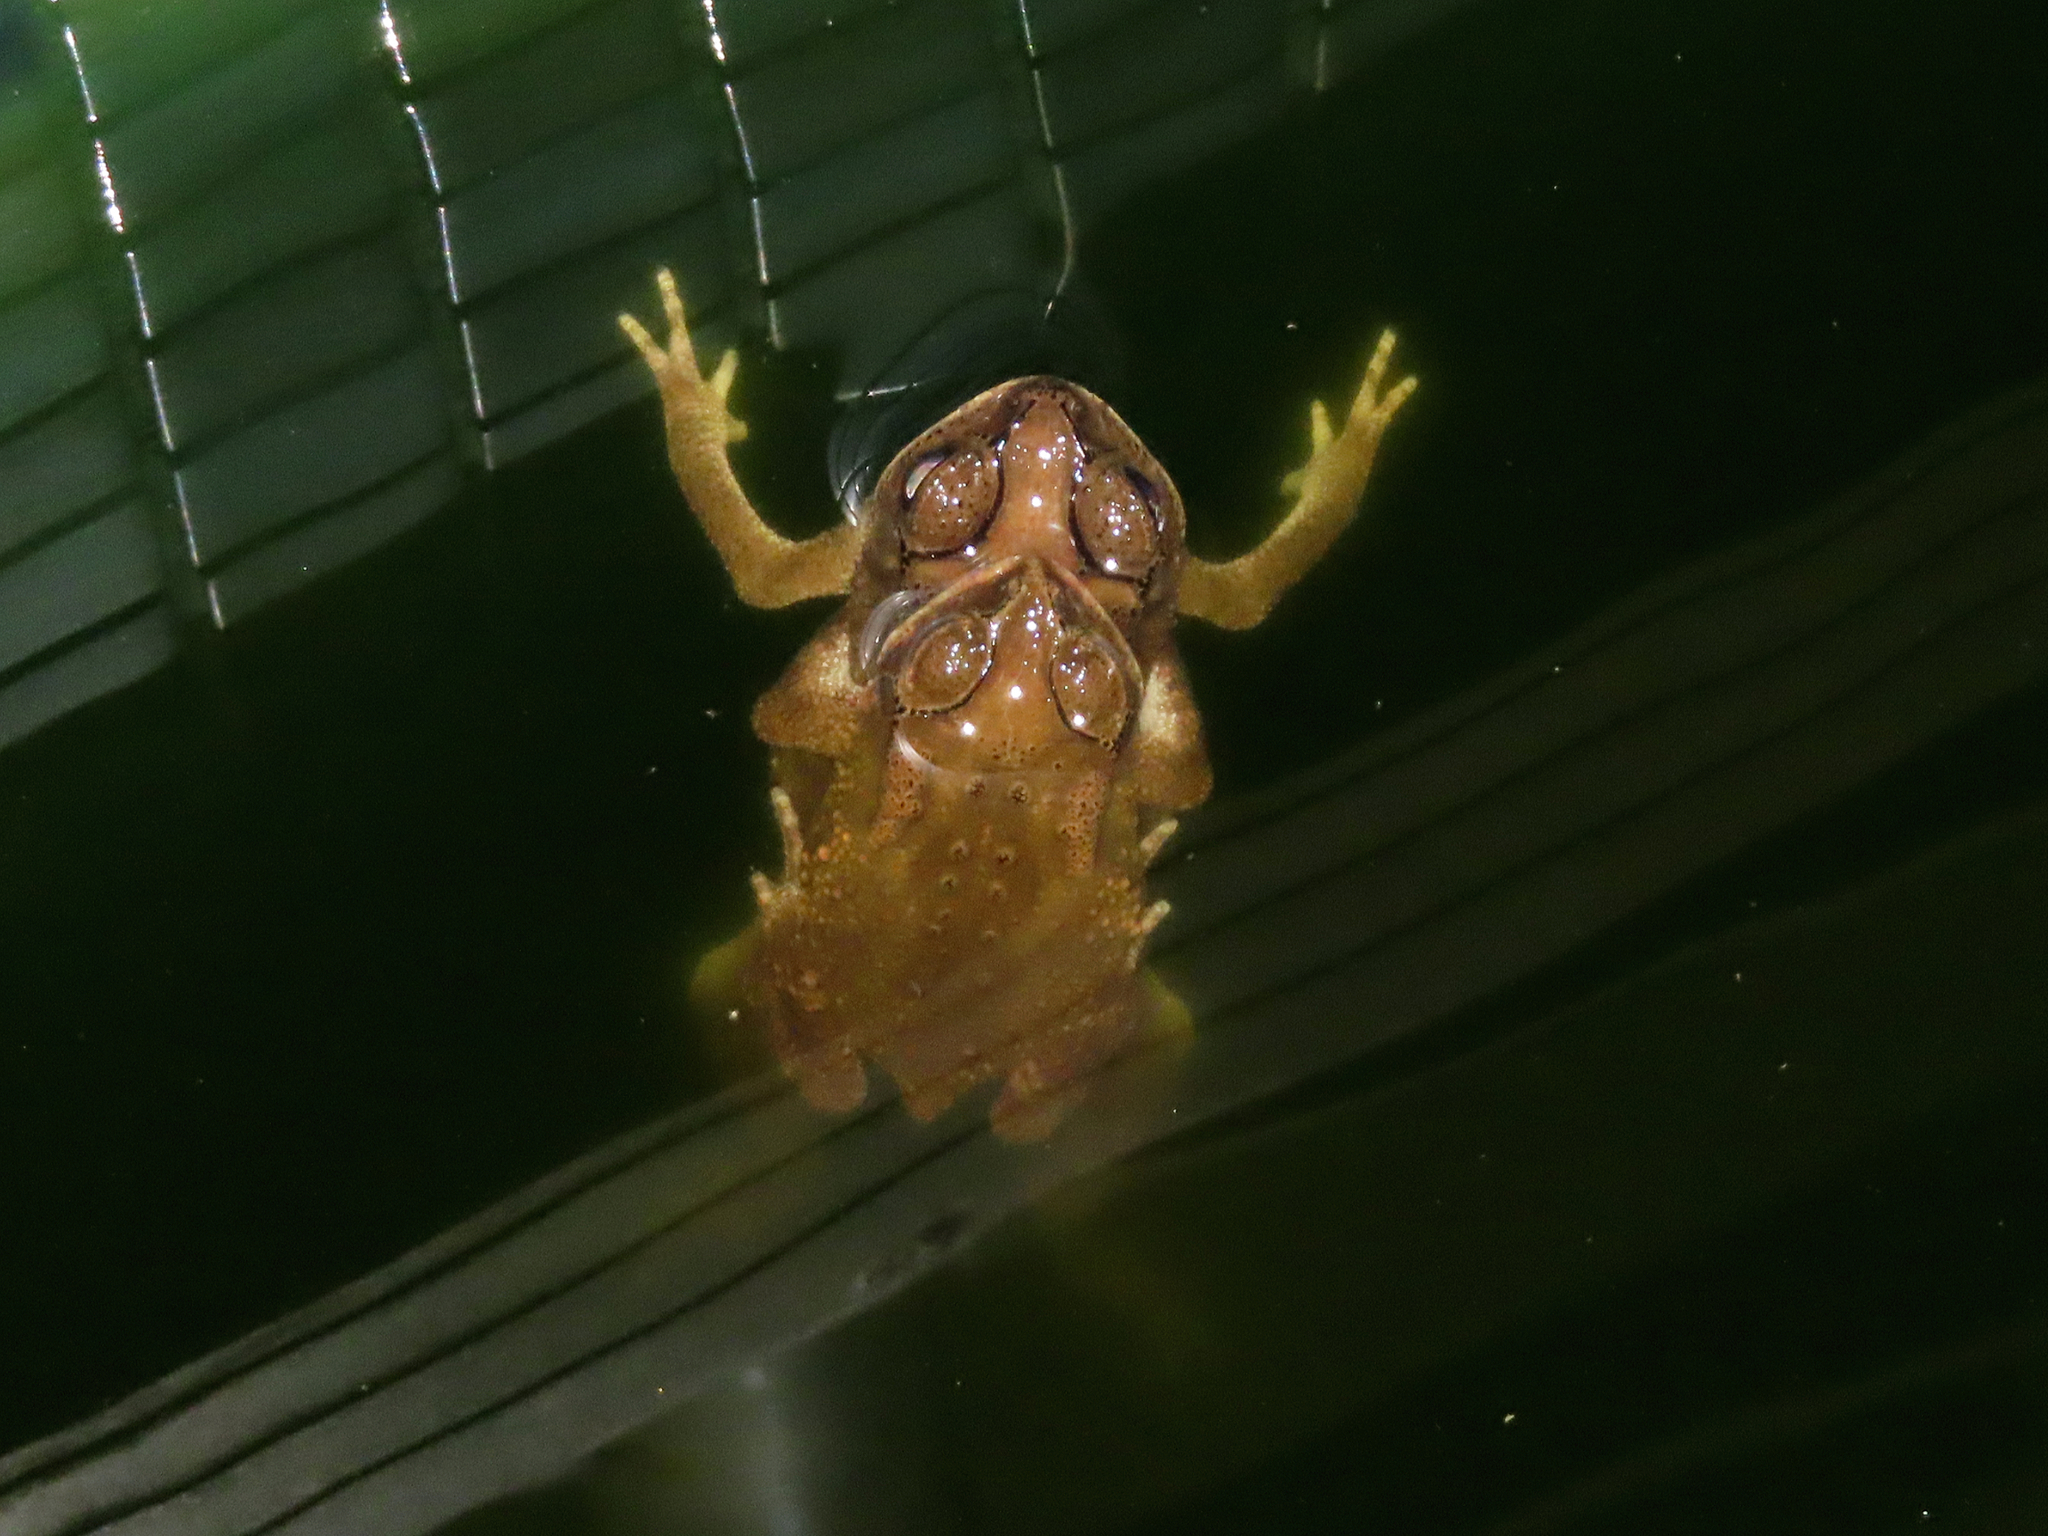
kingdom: Animalia
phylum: Chordata
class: Amphibia
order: Anura
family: Bufonidae
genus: Duttaphrynus
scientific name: Duttaphrynus melanostictus
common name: Common sunda toad
